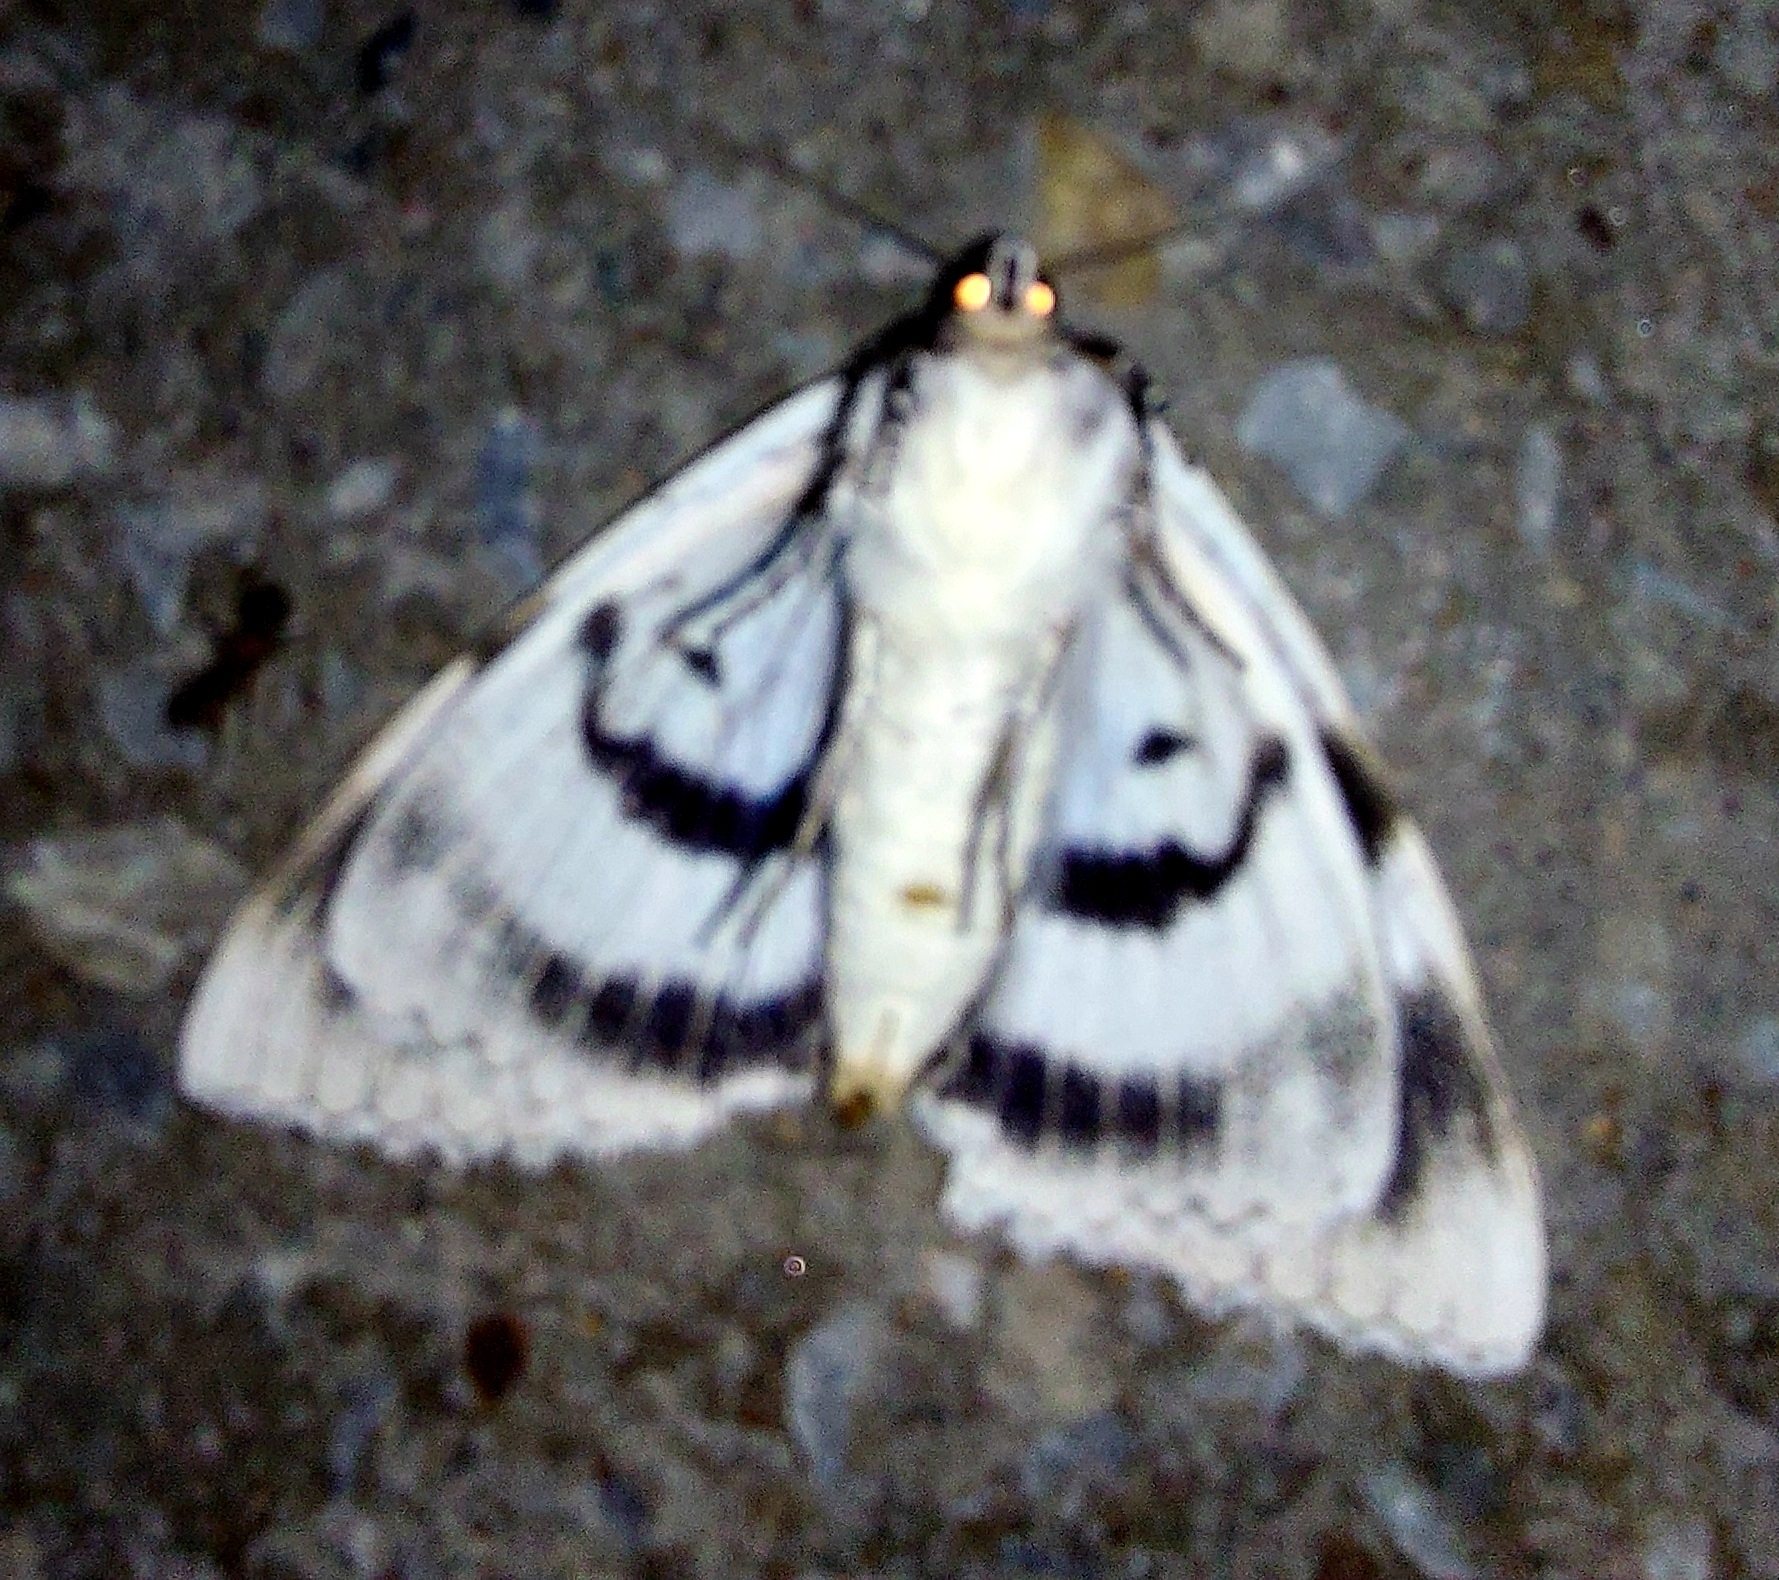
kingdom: Animalia
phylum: Arthropoda
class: Insecta
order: Lepidoptera
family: Erebidae
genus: Catocala
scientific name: Catocala fraxini
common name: Clifden nonpareil
